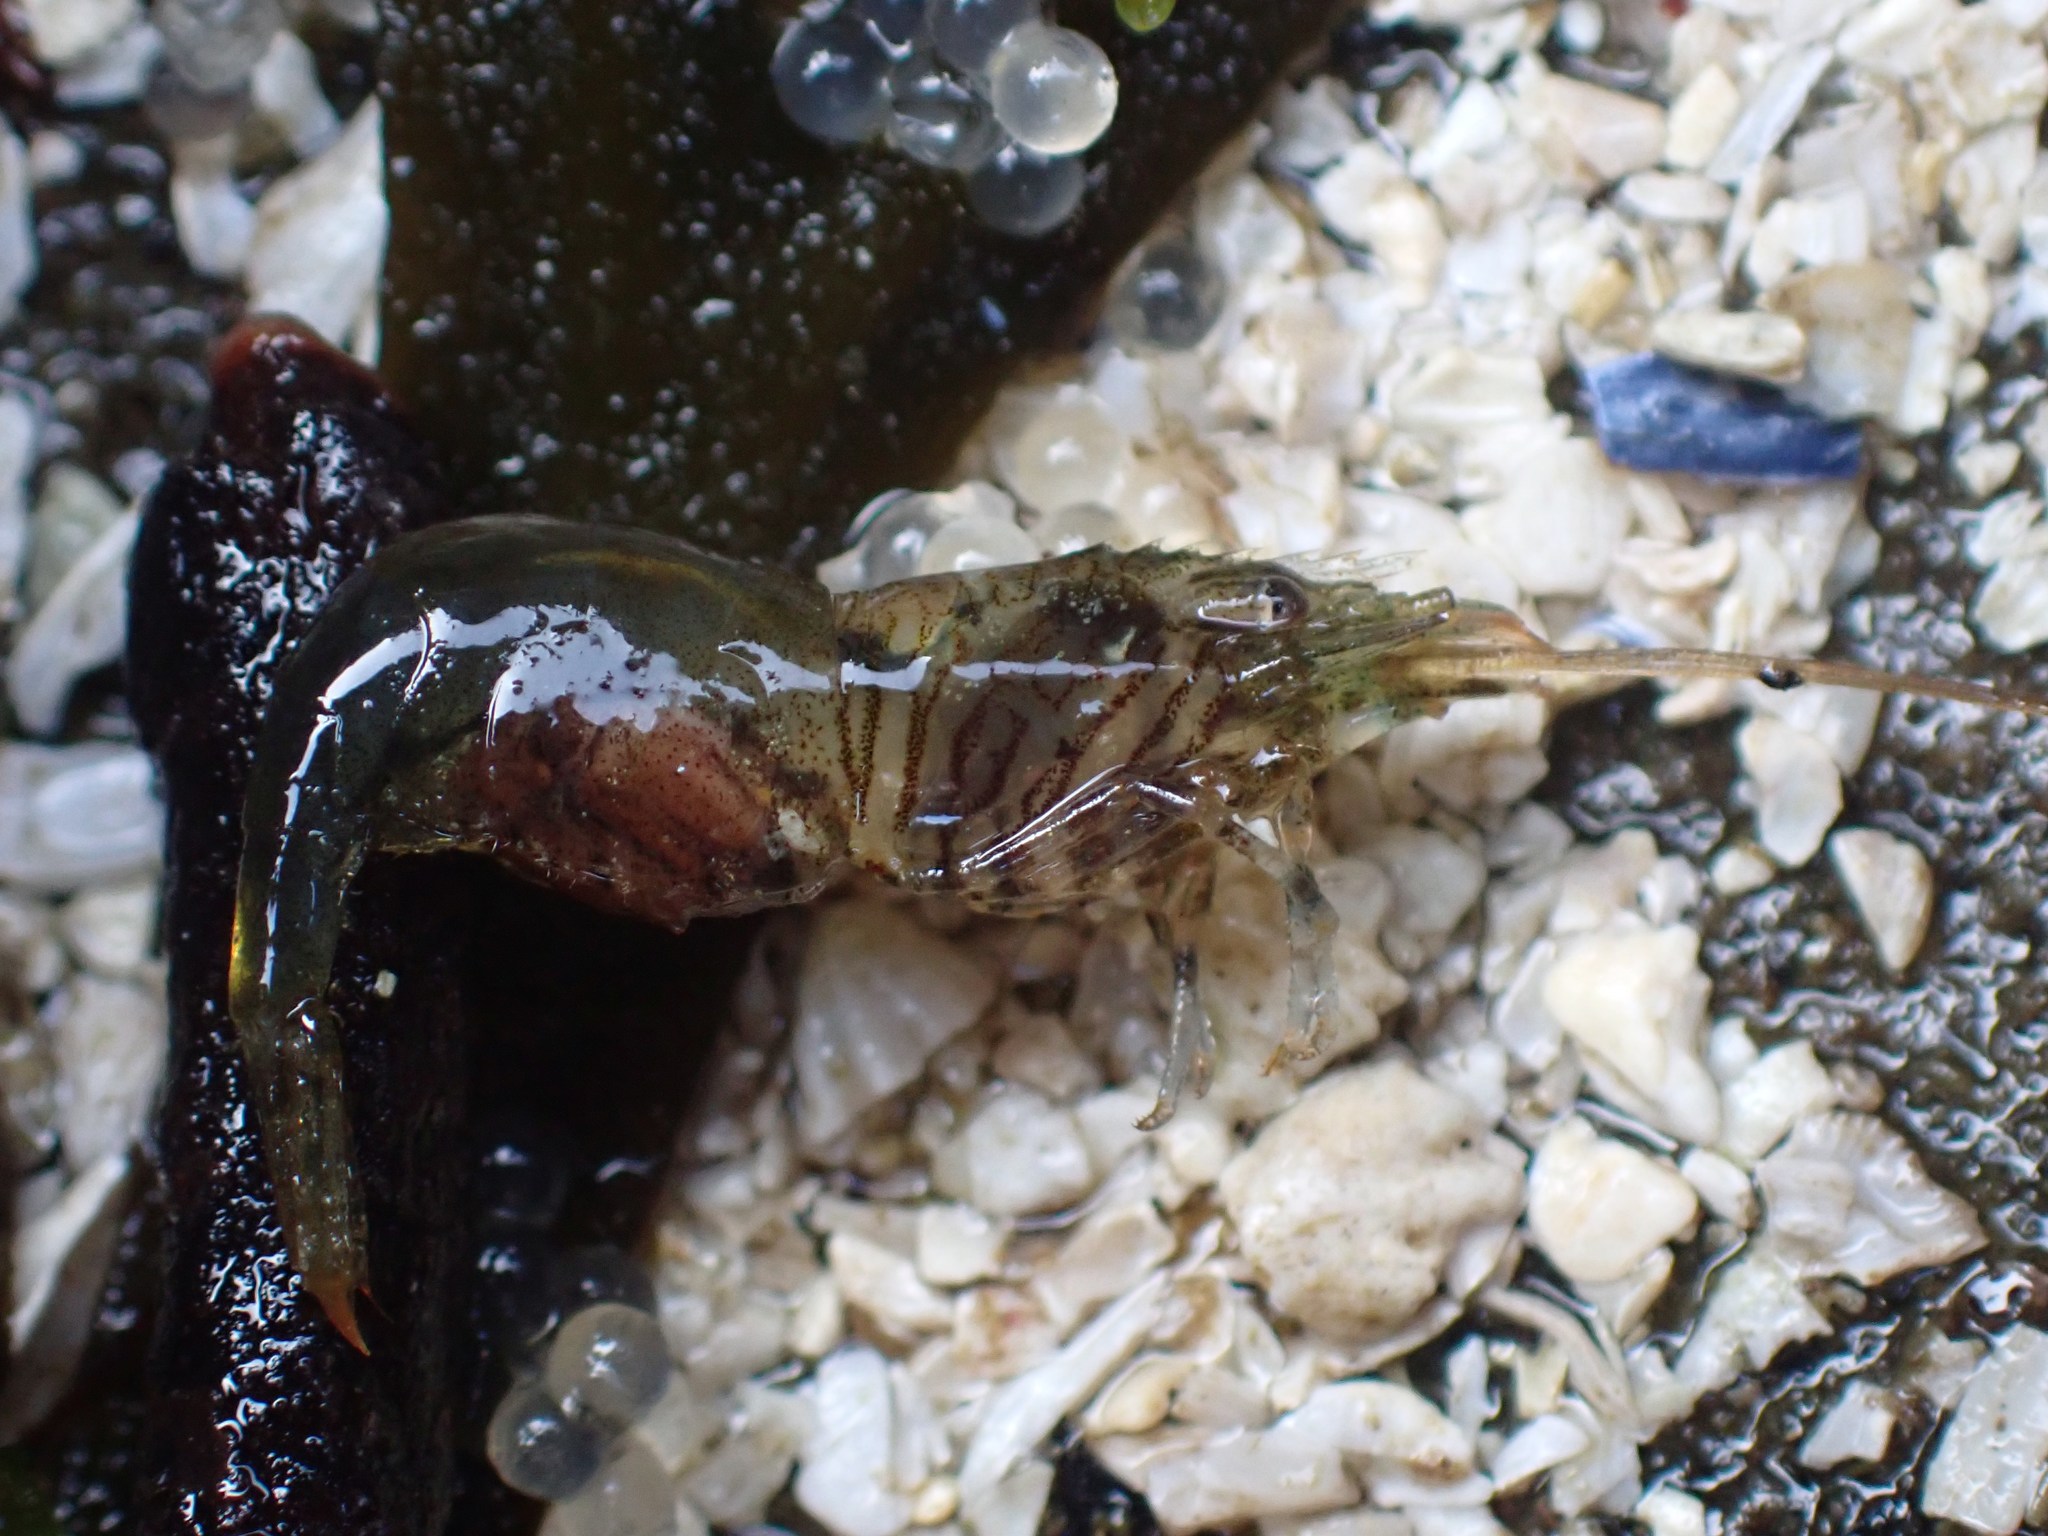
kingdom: Animalia
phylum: Arthropoda
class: Malacostraca
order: Decapoda
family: Thoridae
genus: Heptacarpus
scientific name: Heptacarpus sitchensis
